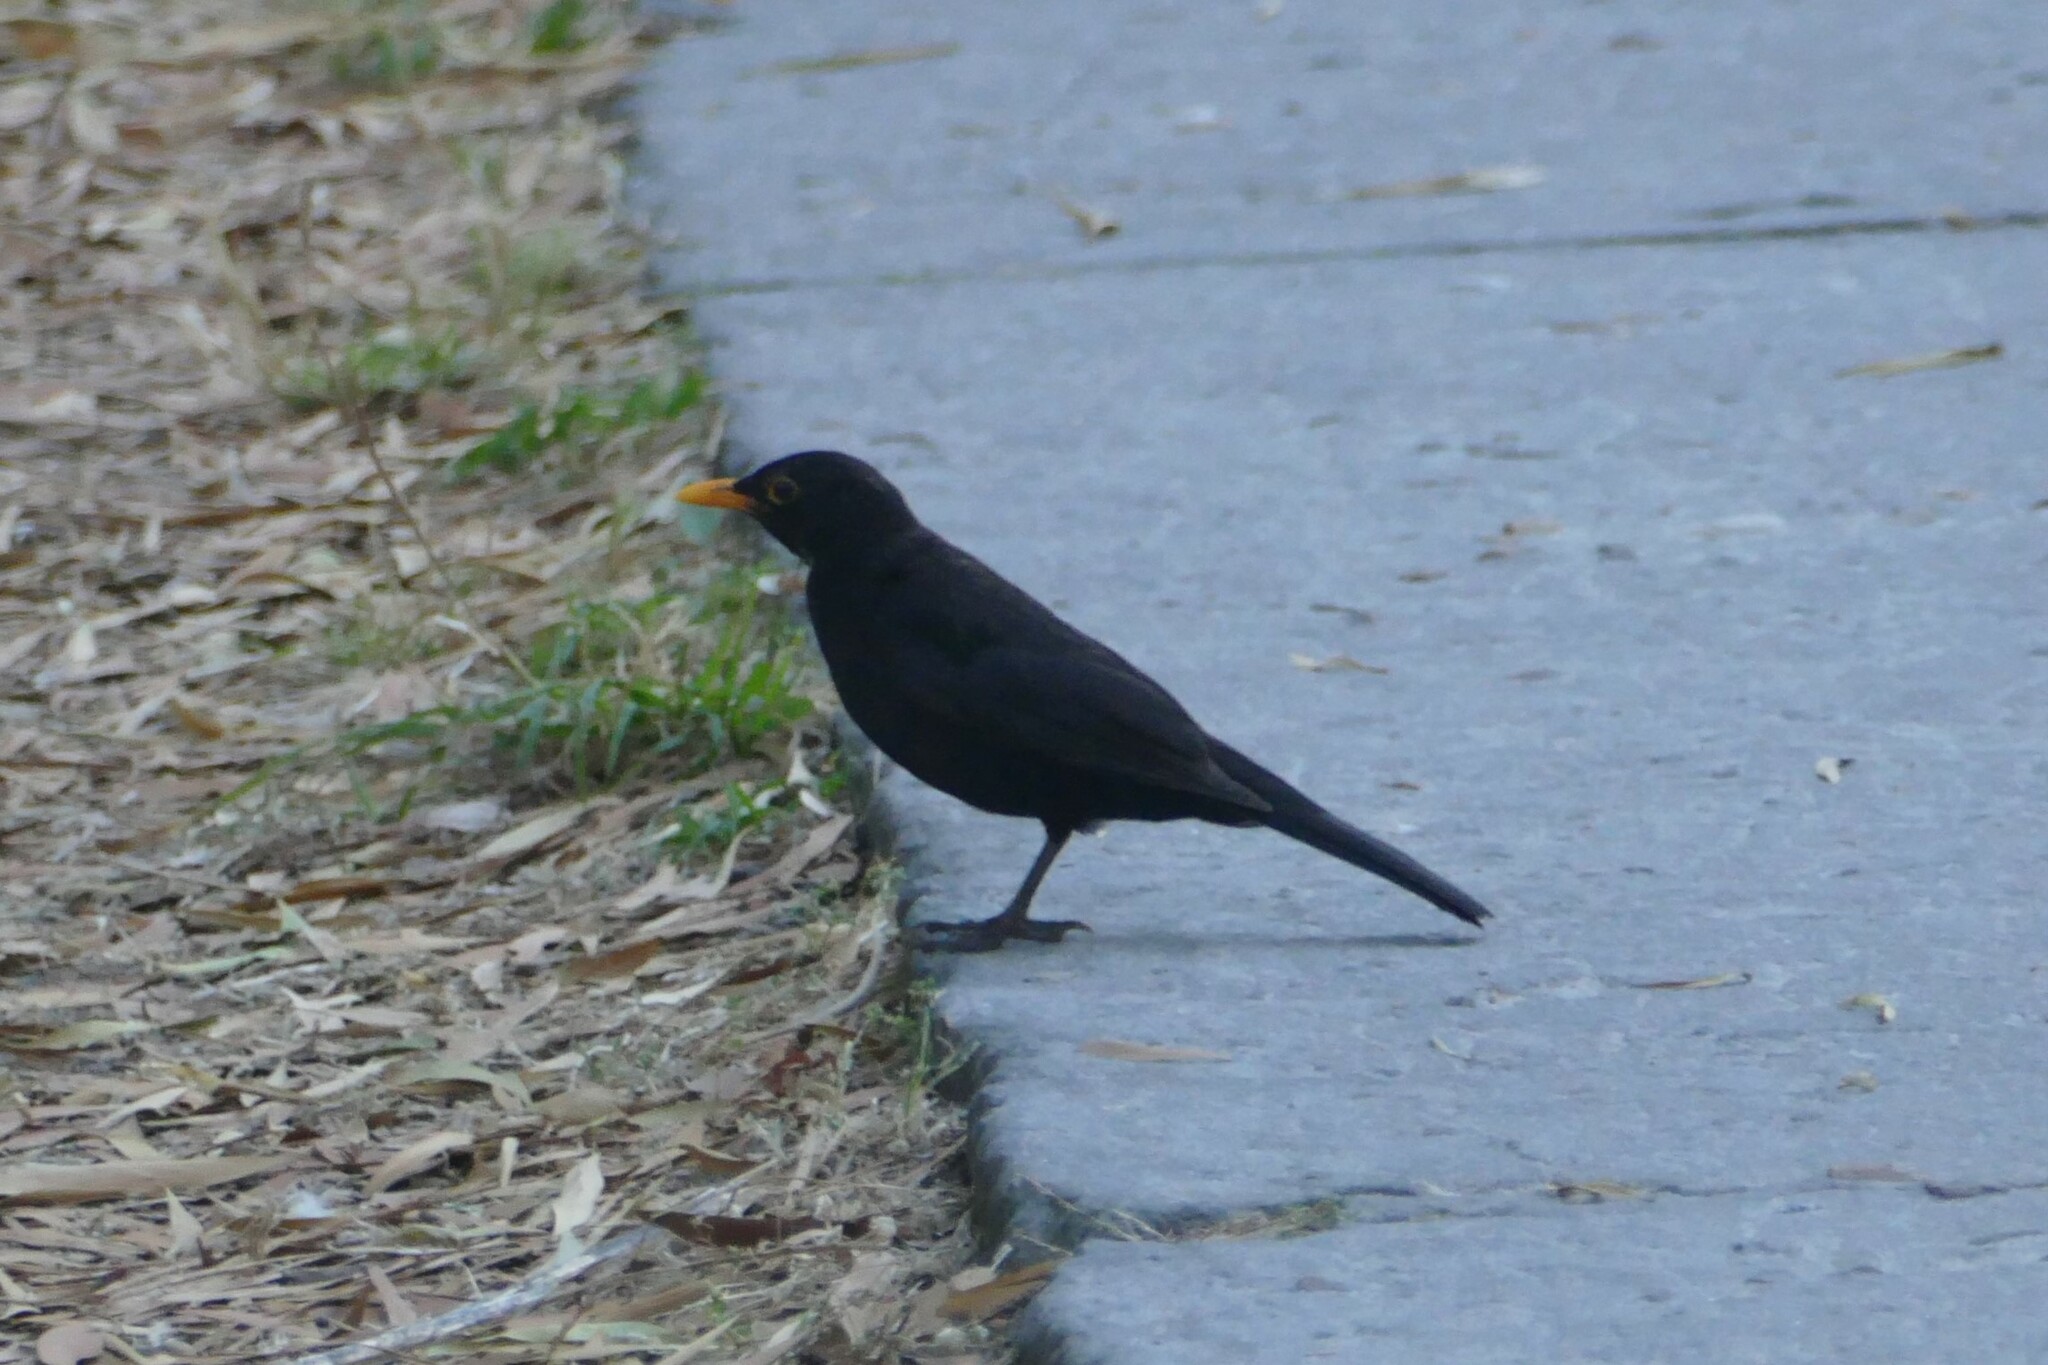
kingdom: Animalia
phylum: Chordata
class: Aves
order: Passeriformes
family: Turdidae
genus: Turdus
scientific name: Turdus merula
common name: Common blackbird
